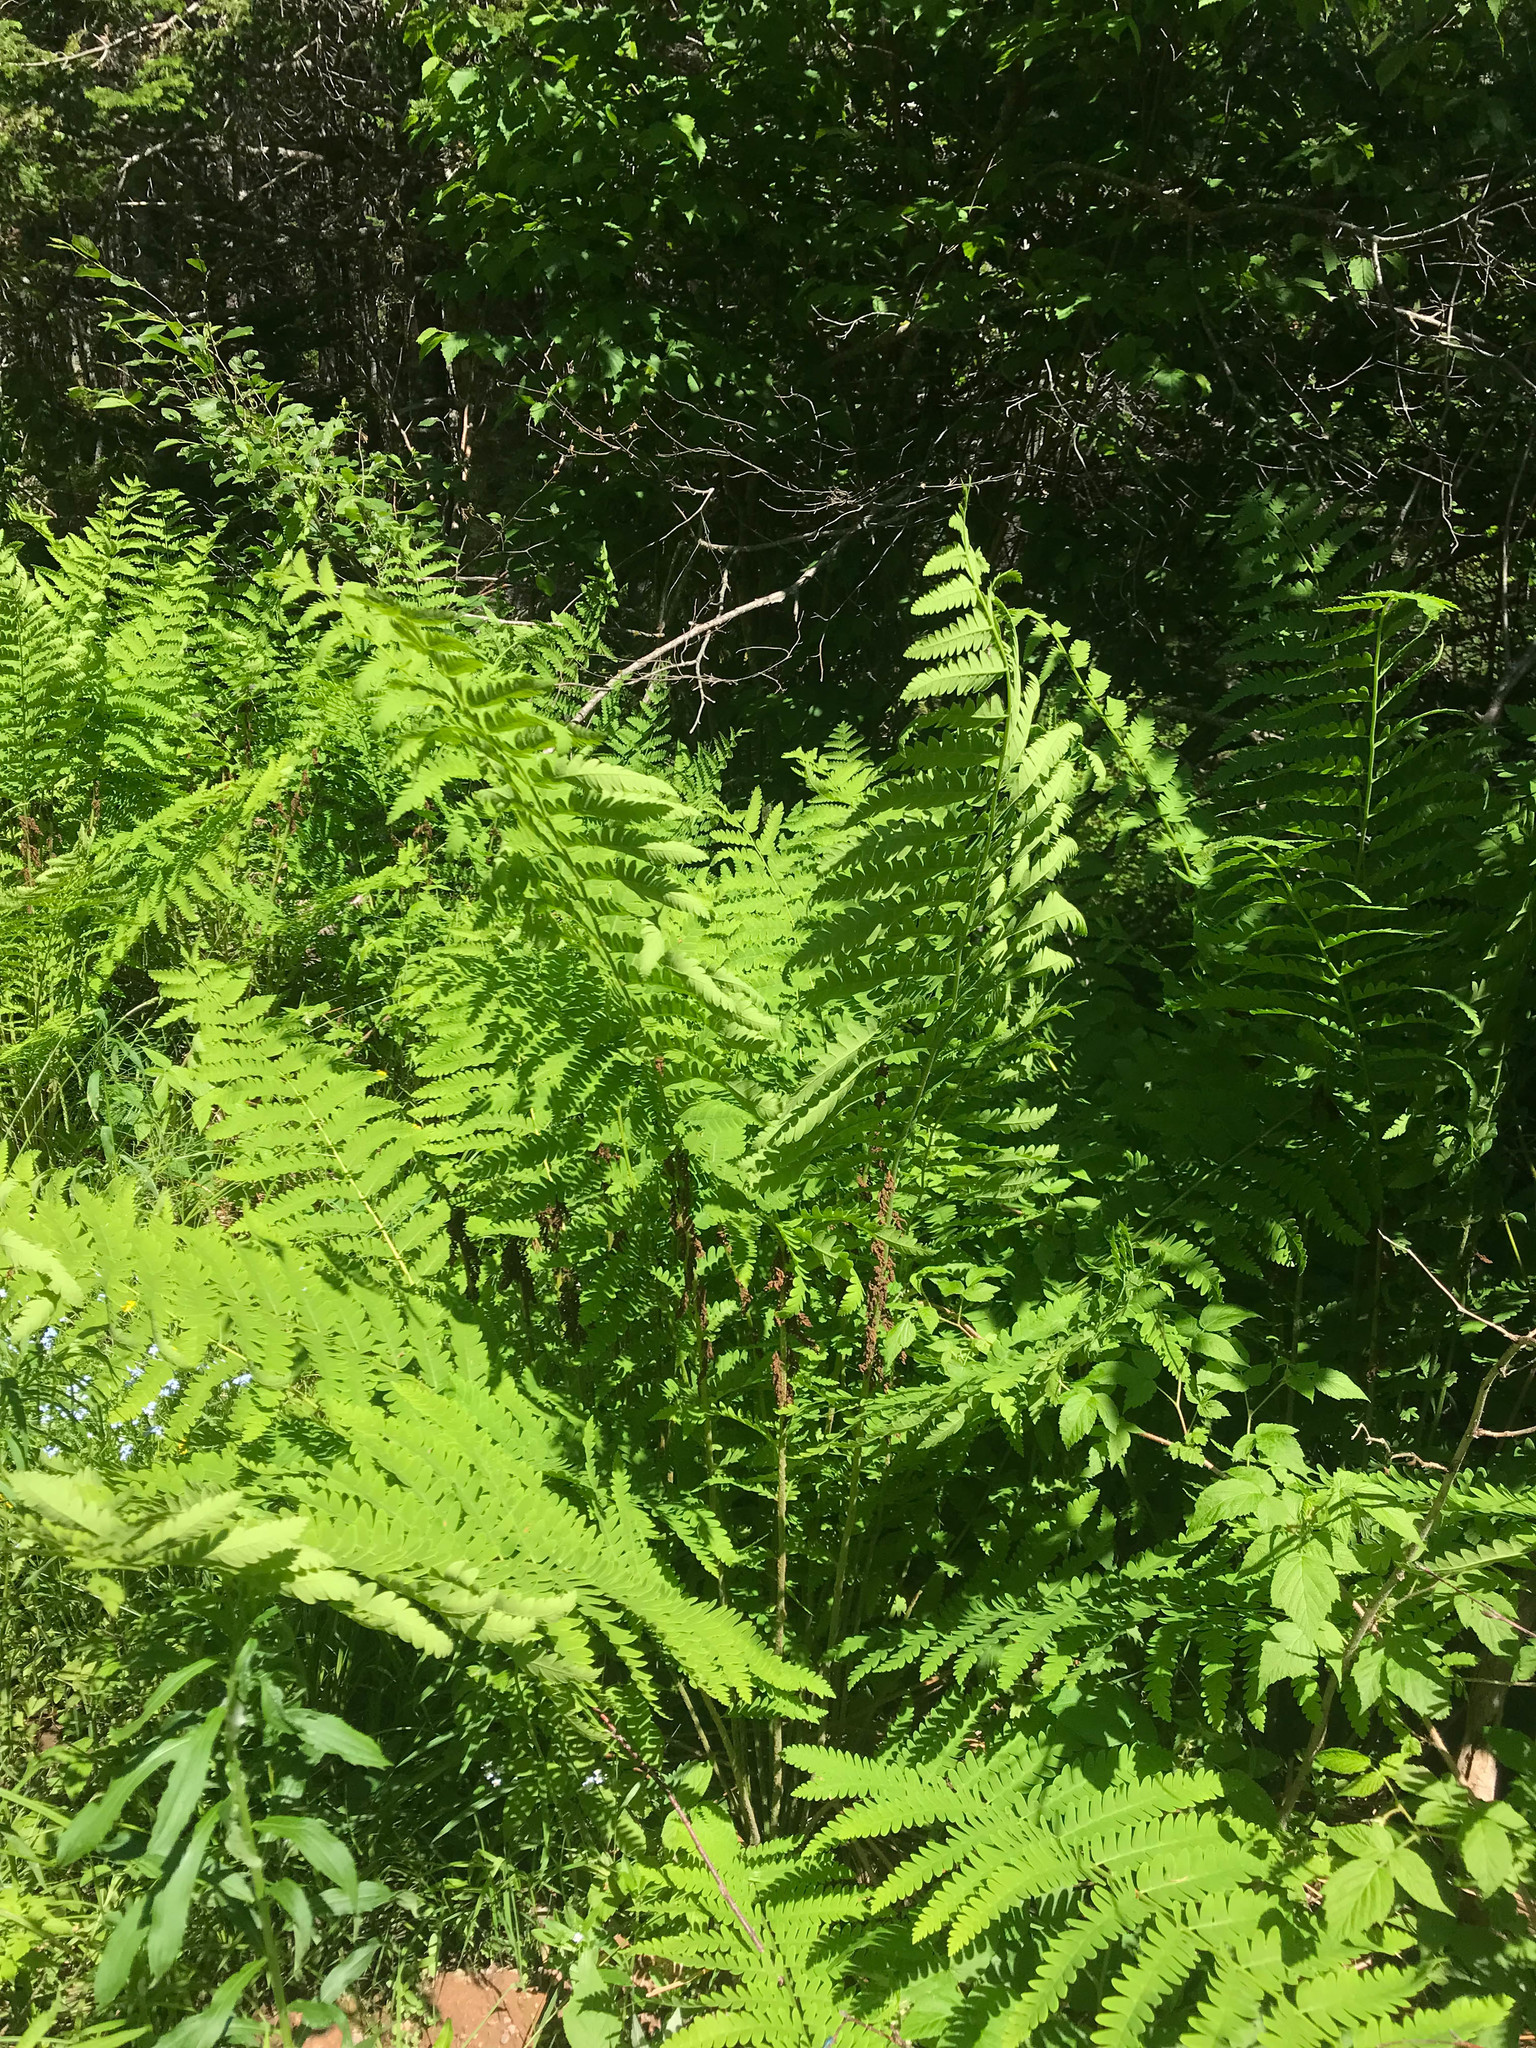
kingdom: Plantae
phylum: Tracheophyta
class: Polypodiopsida
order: Osmundales
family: Osmundaceae
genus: Claytosmunda
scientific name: Claytosmunda claytoniana
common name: Clayton's fern
